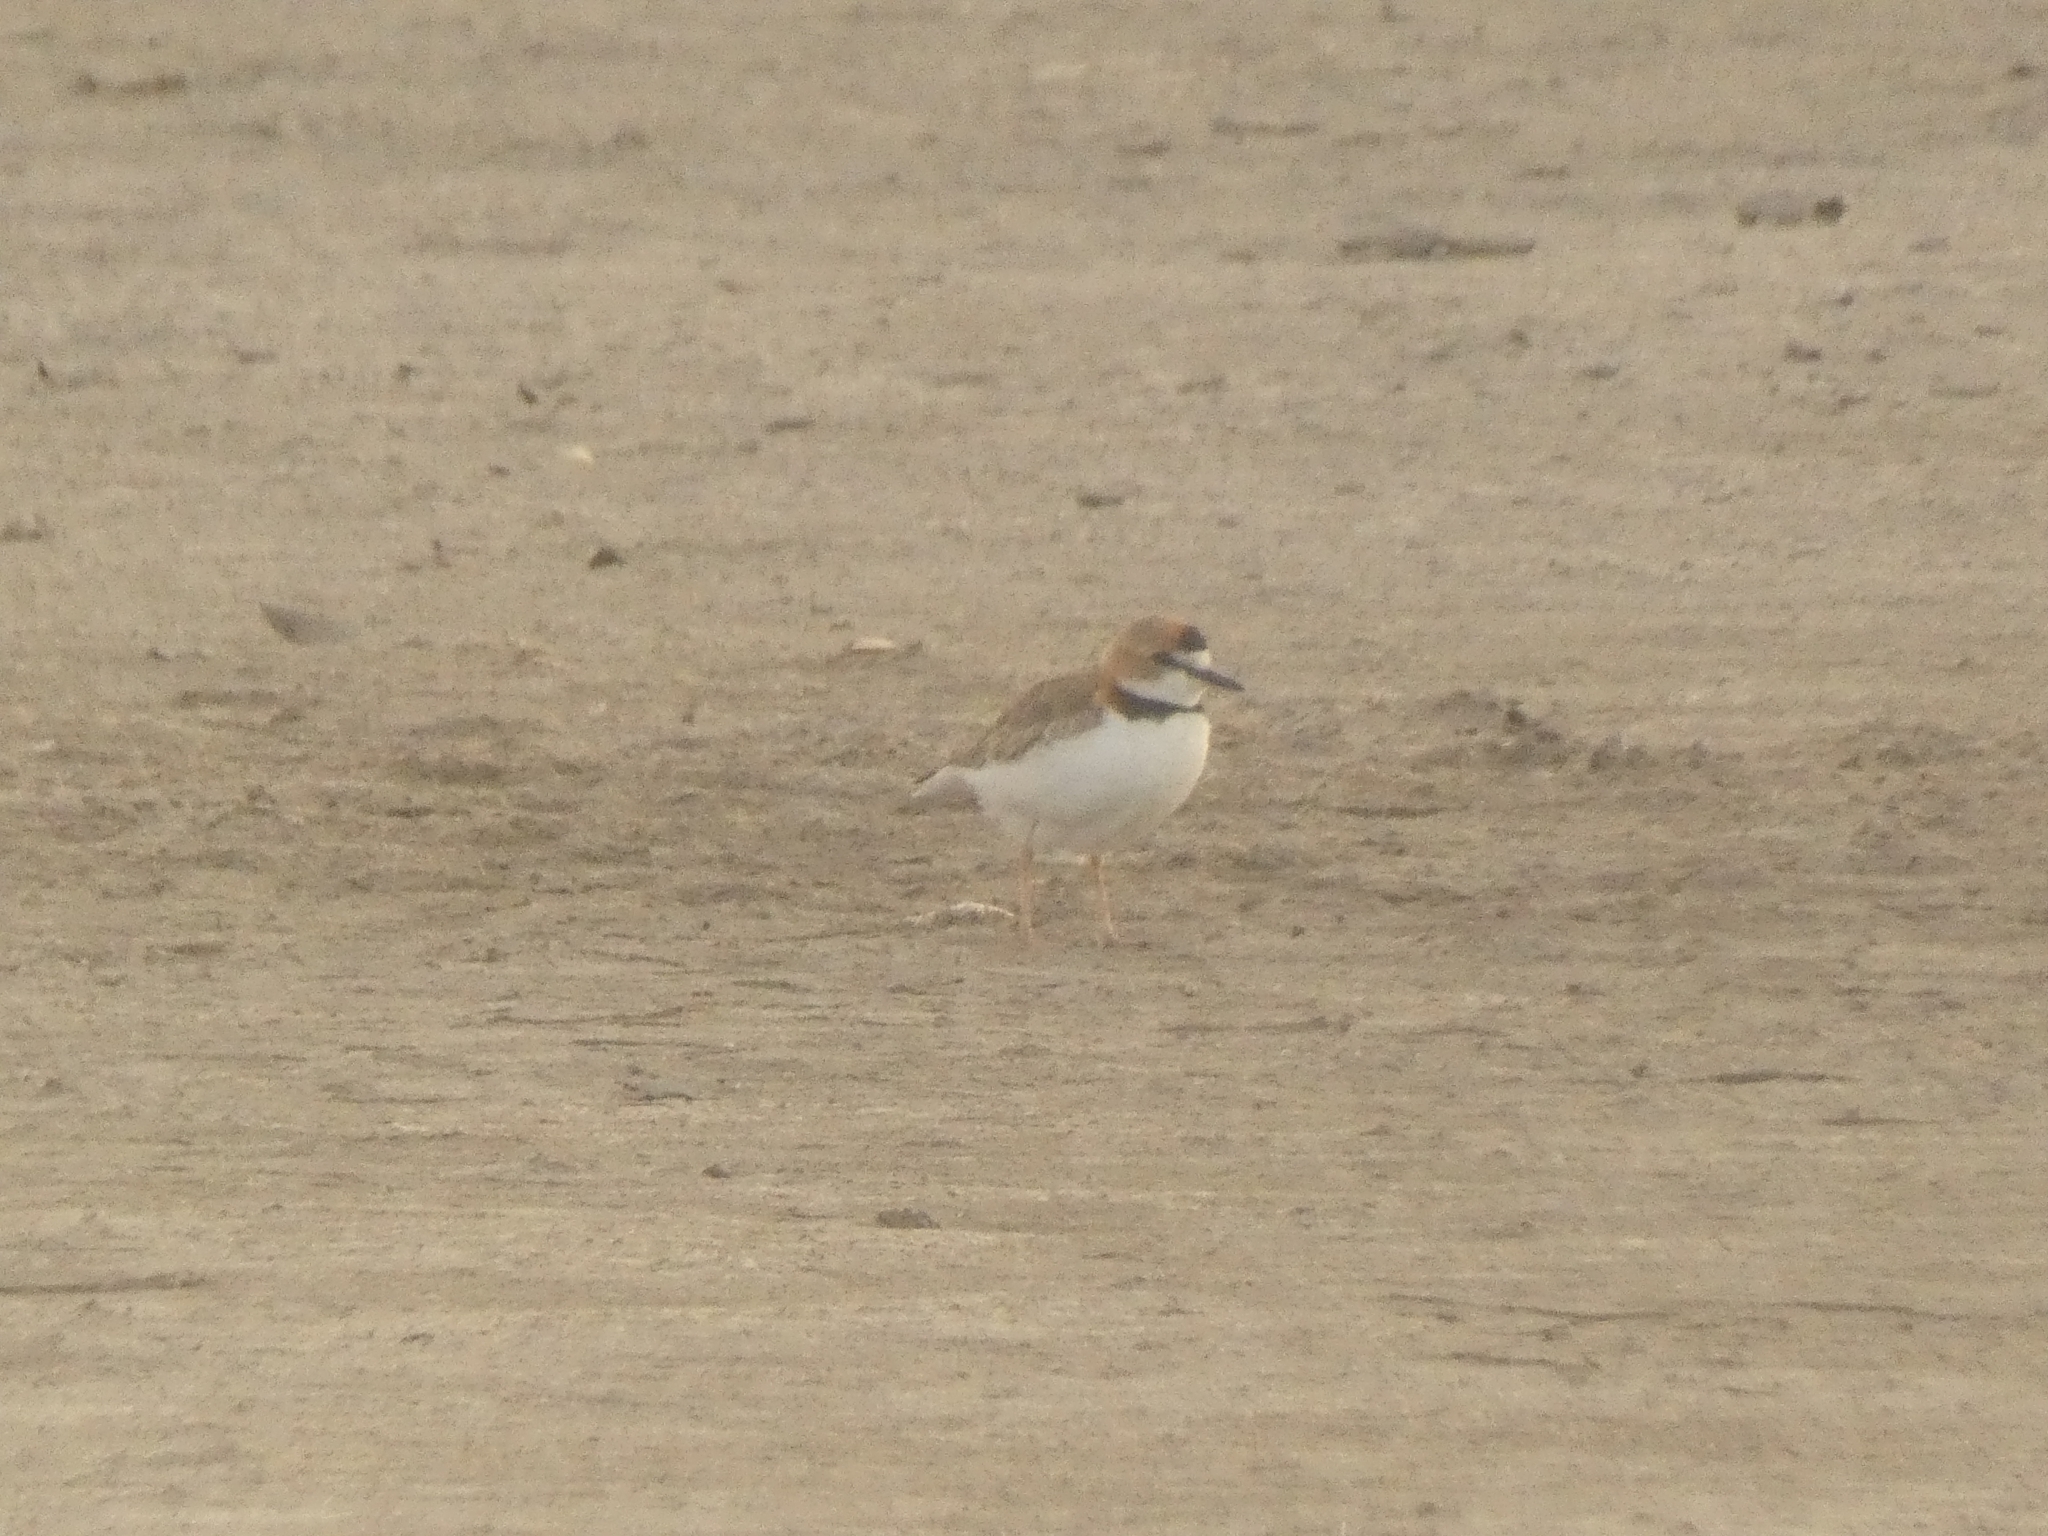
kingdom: Animalia
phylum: Chordata
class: Aves
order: Charadriiformes
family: Charadriidae
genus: Anarhynchus
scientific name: Anarhynchus
